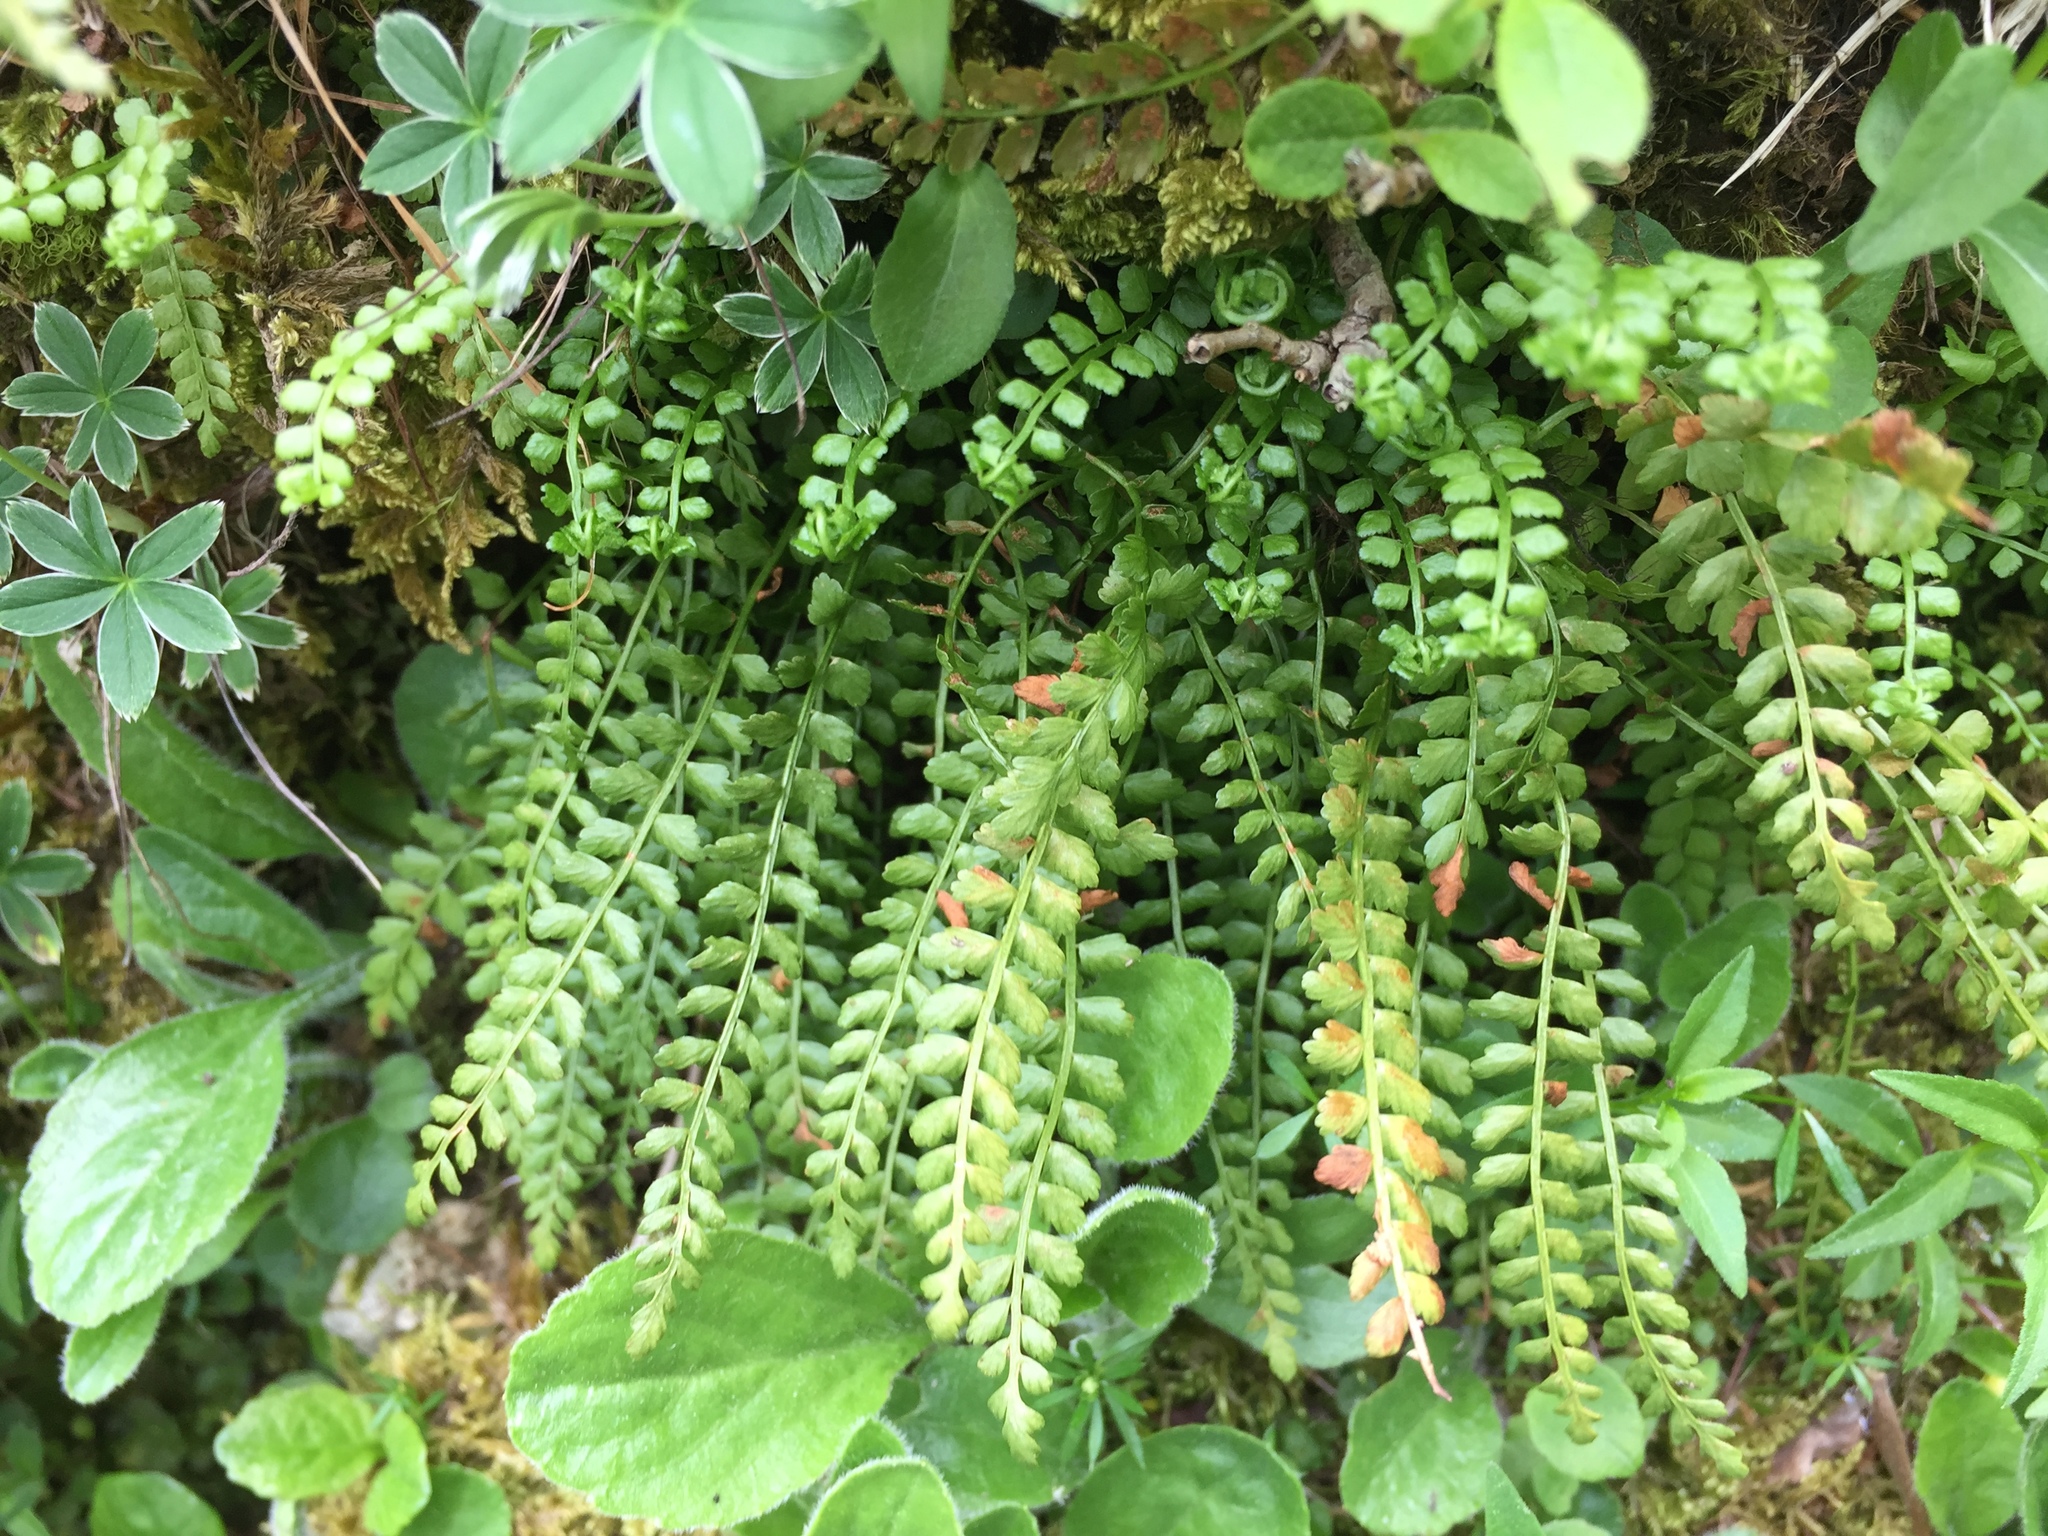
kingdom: Plantae
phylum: Tracheophyta
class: Polypodiopsida
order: Polypodiales
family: Aspleniaceae
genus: Asplenium
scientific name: Asplenium viride
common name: Green spleenwort
